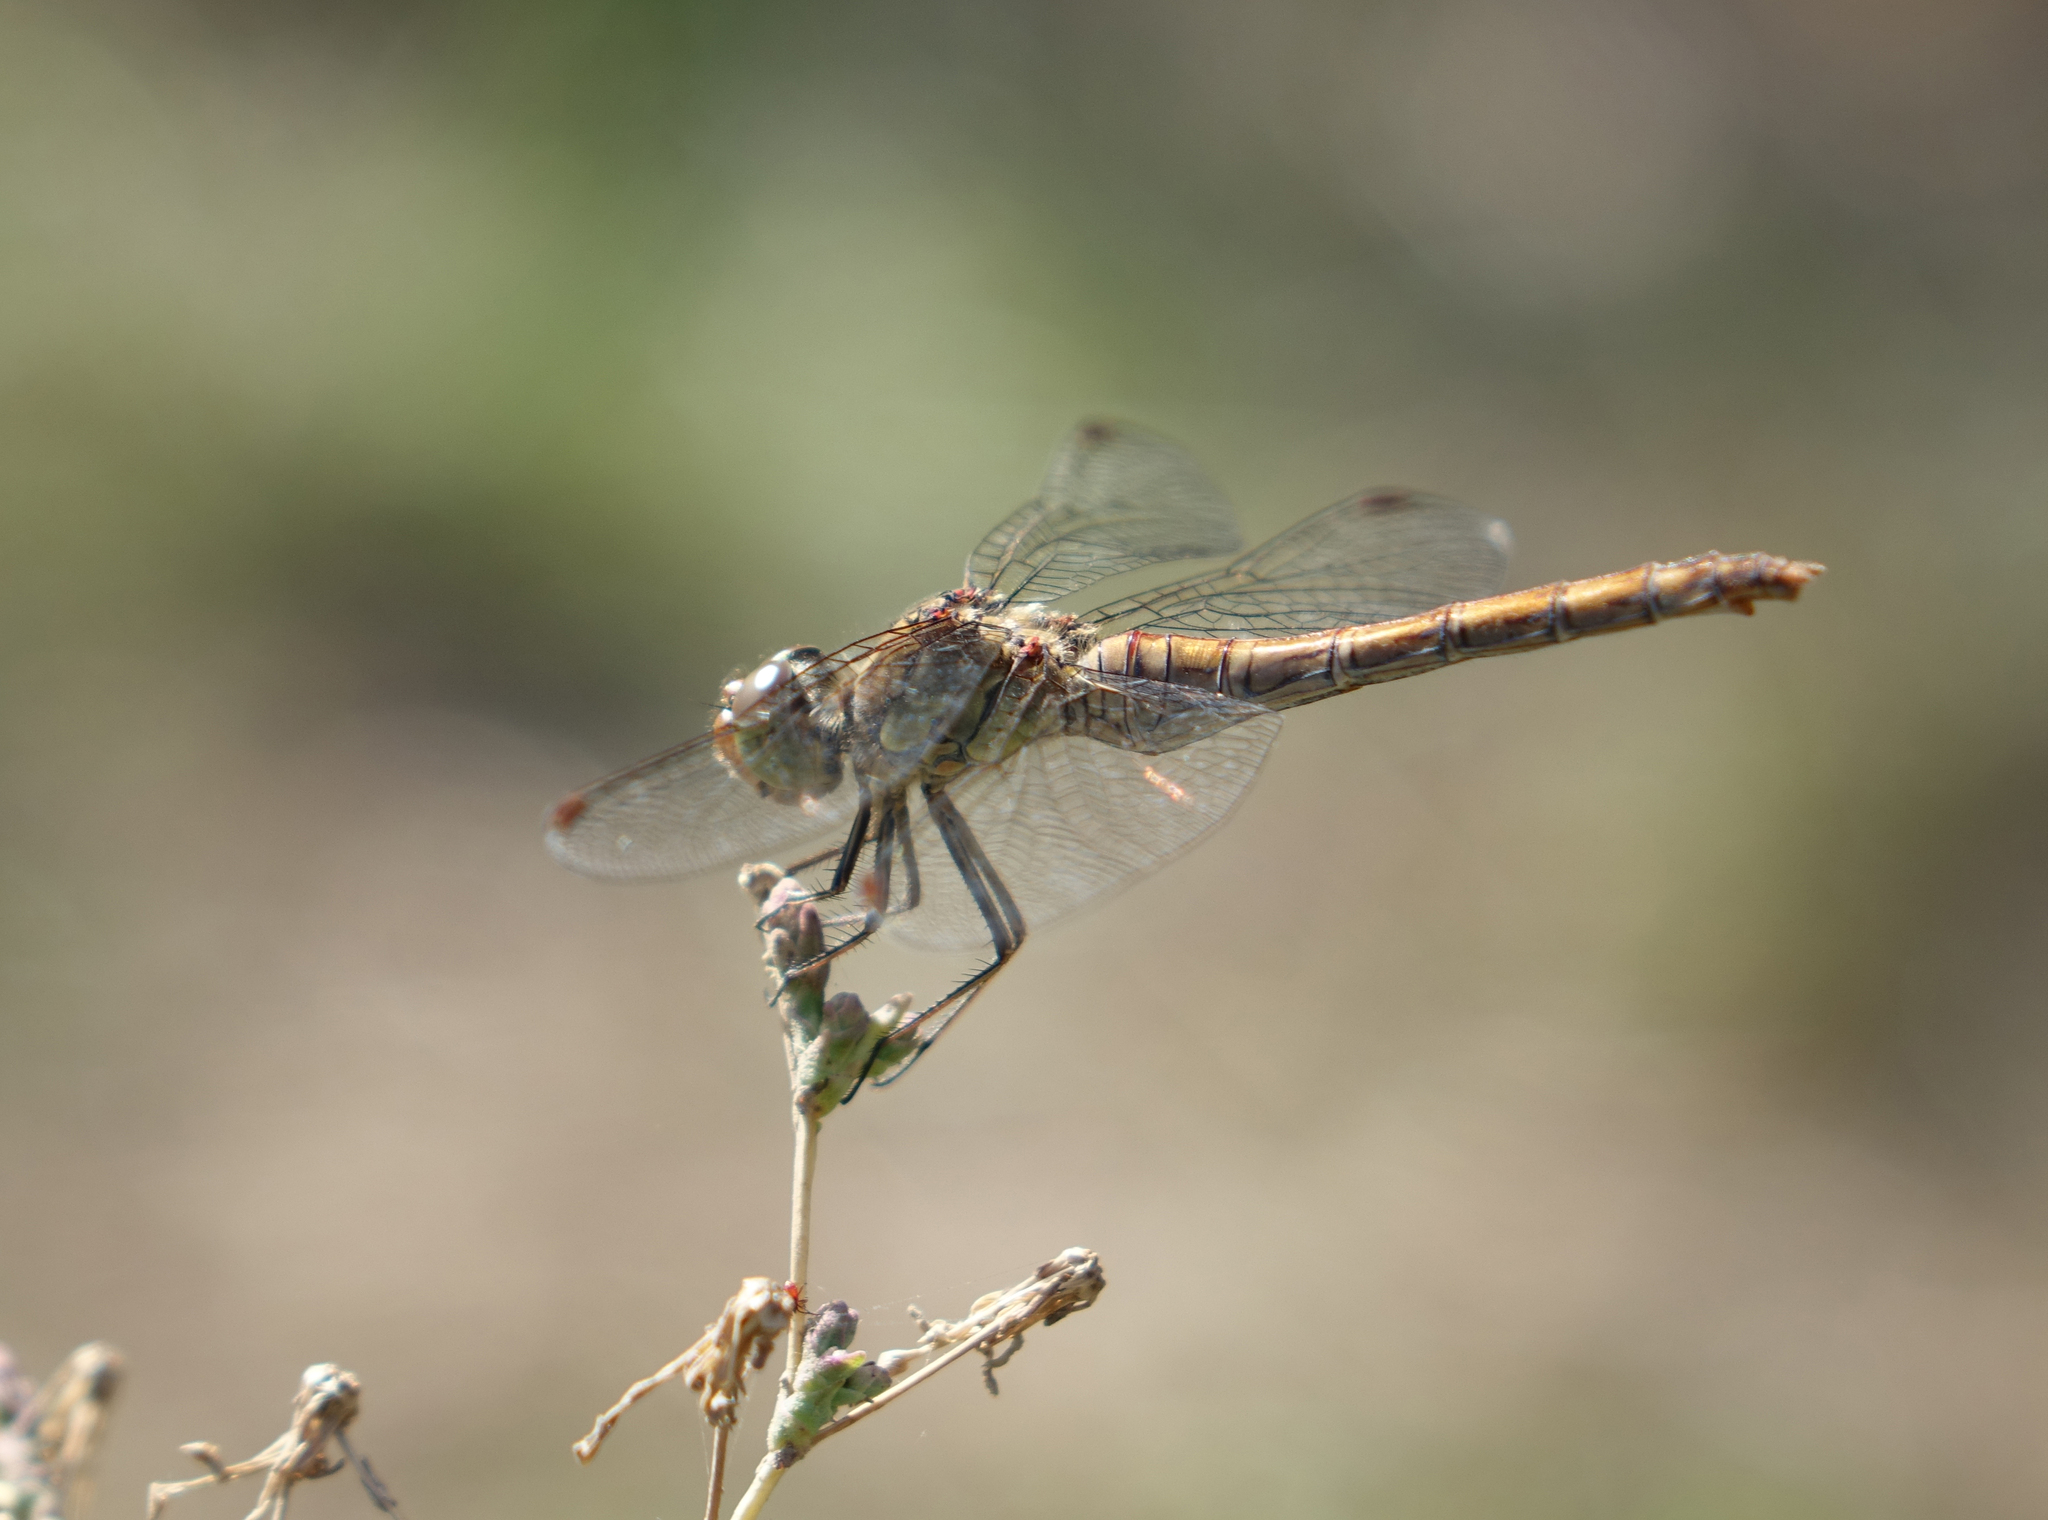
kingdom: Animalia
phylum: Arthropoda
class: Insecta
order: Odonata
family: Libellulidae
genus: Sympetrum
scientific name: Sympetrum striolatum
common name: Common darter
